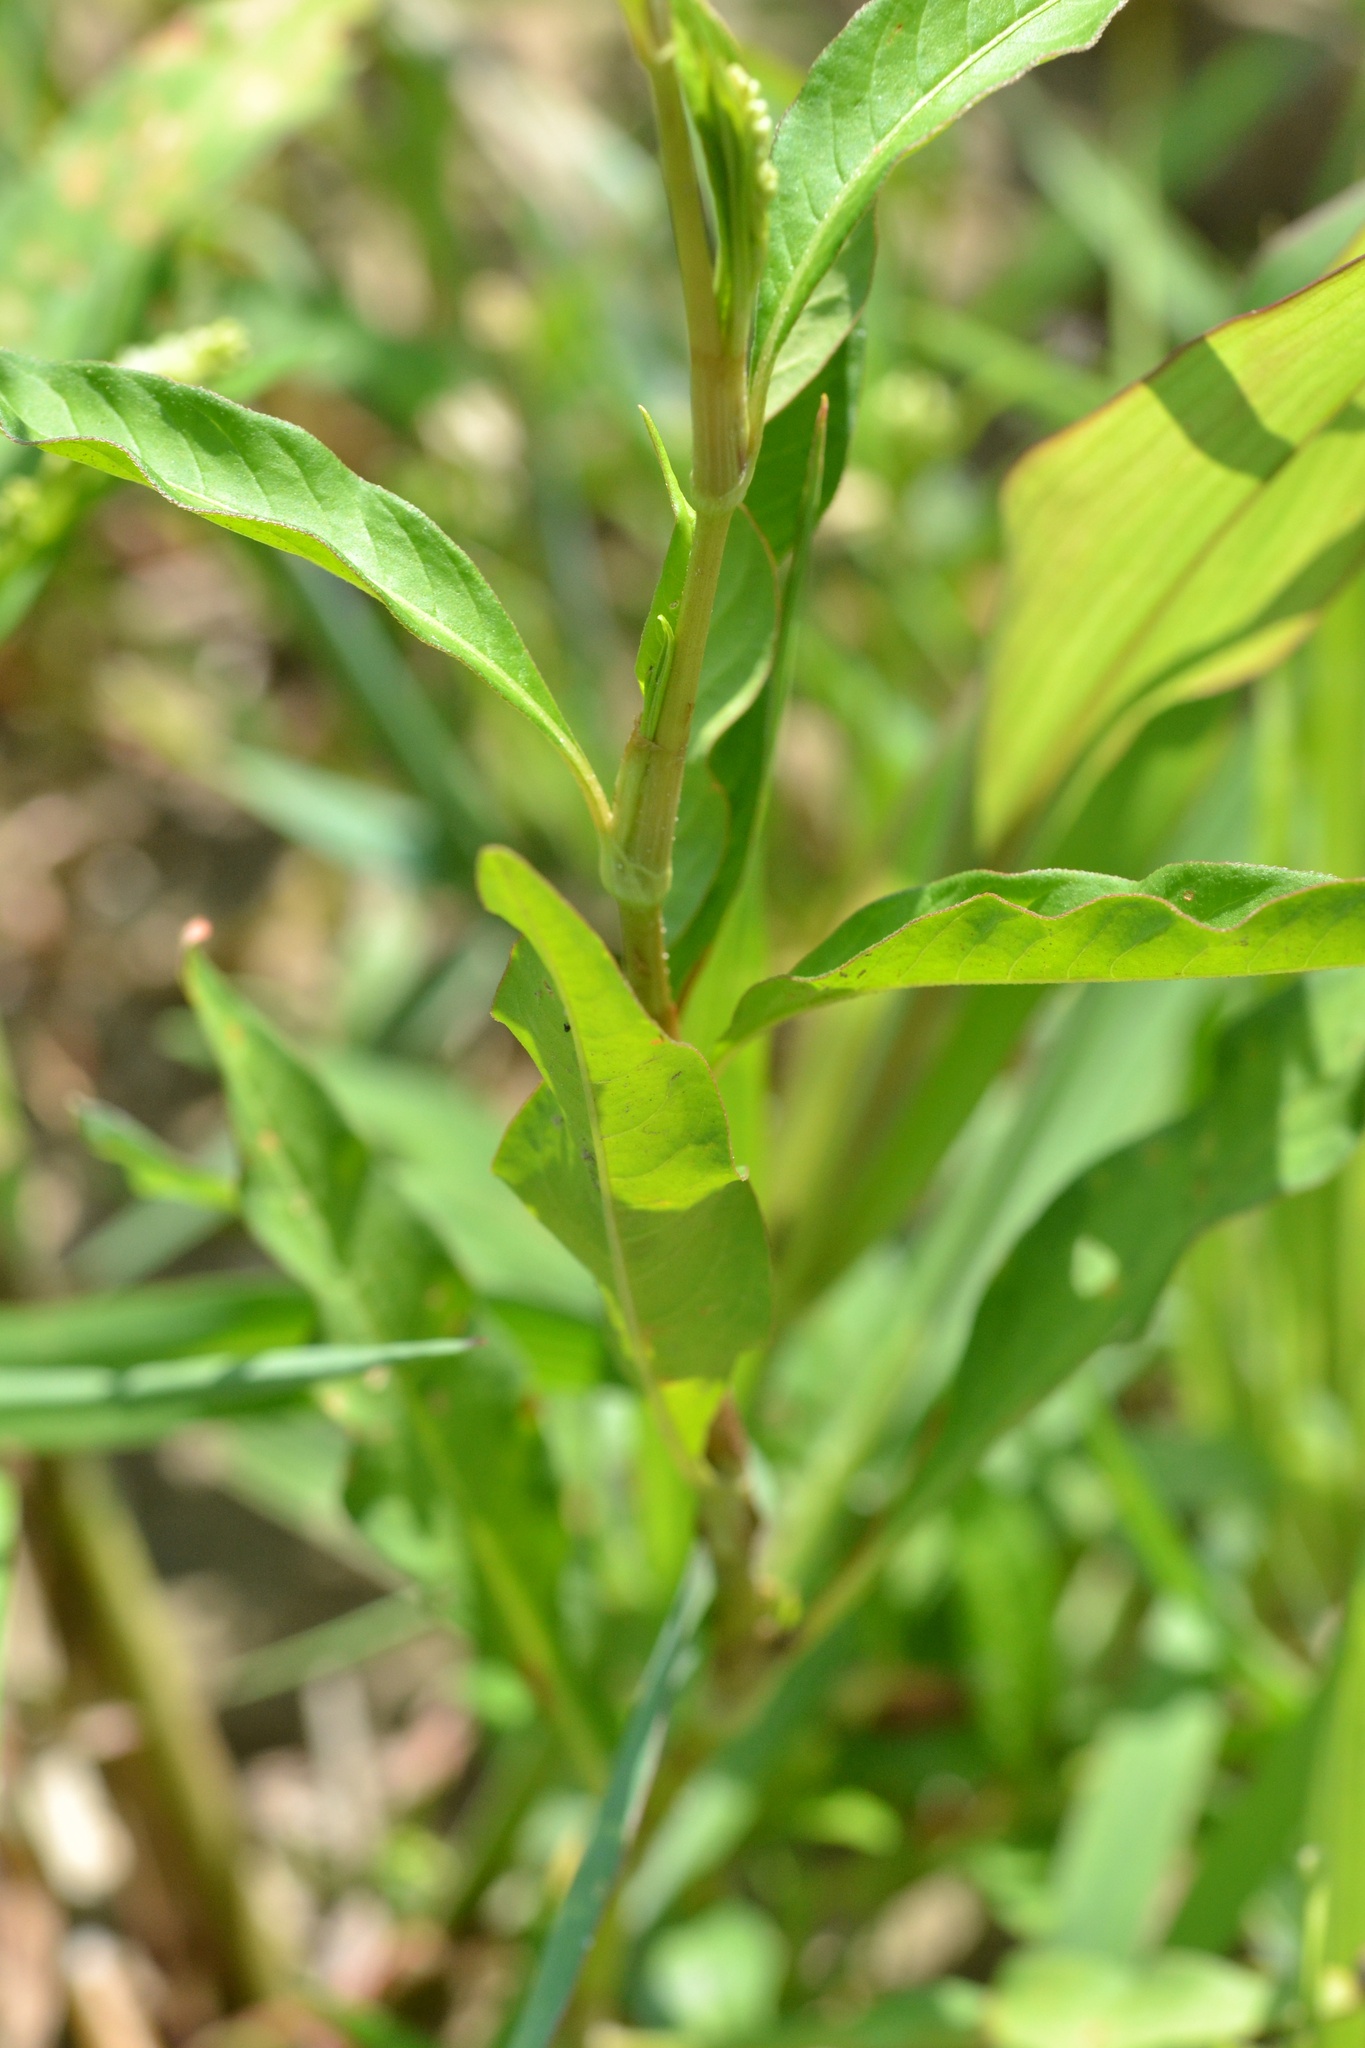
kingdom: Plantae
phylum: Tracheophyta
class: Magnoliopsida
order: Caryophyllales
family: Polygonaceae
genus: Persicaria
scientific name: Persicaria lapathifolia
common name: Curlytop knotweed
